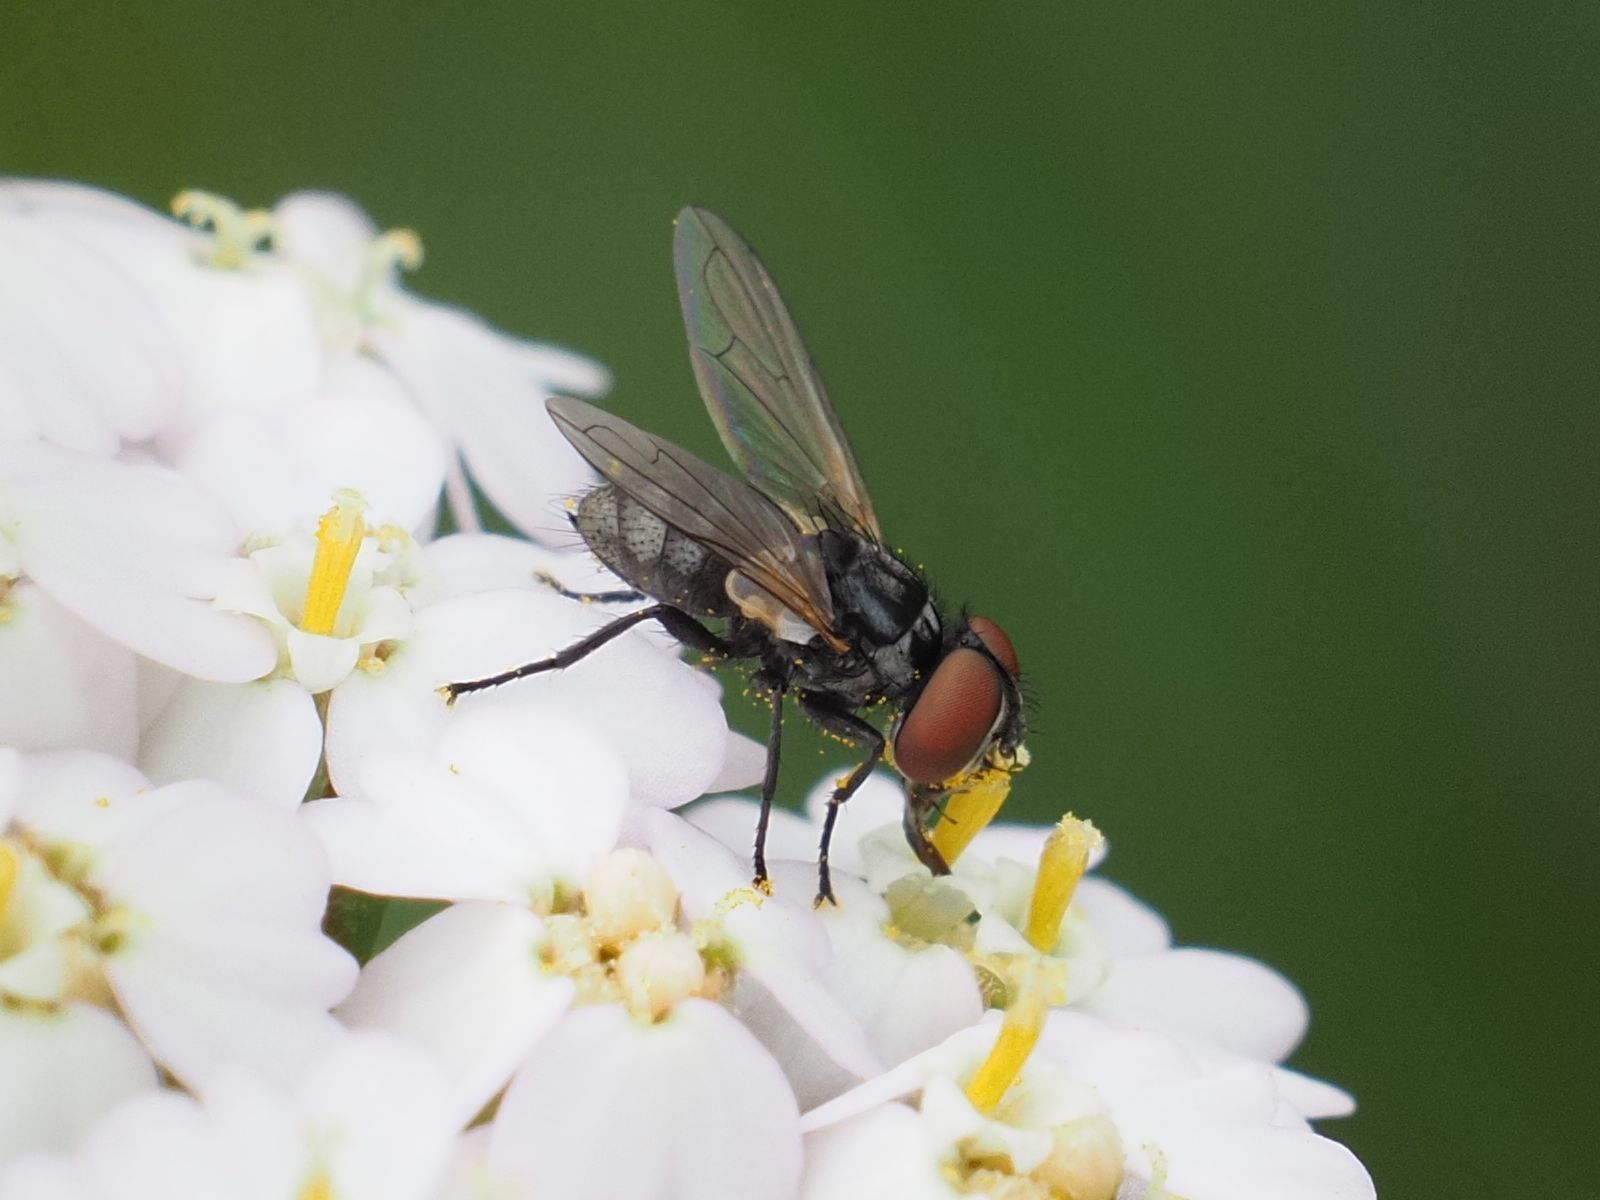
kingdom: Animalia
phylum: Arthropoda
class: Insecta
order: Diptera
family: Tachinidae
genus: Phasia
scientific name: Phasia obesa
